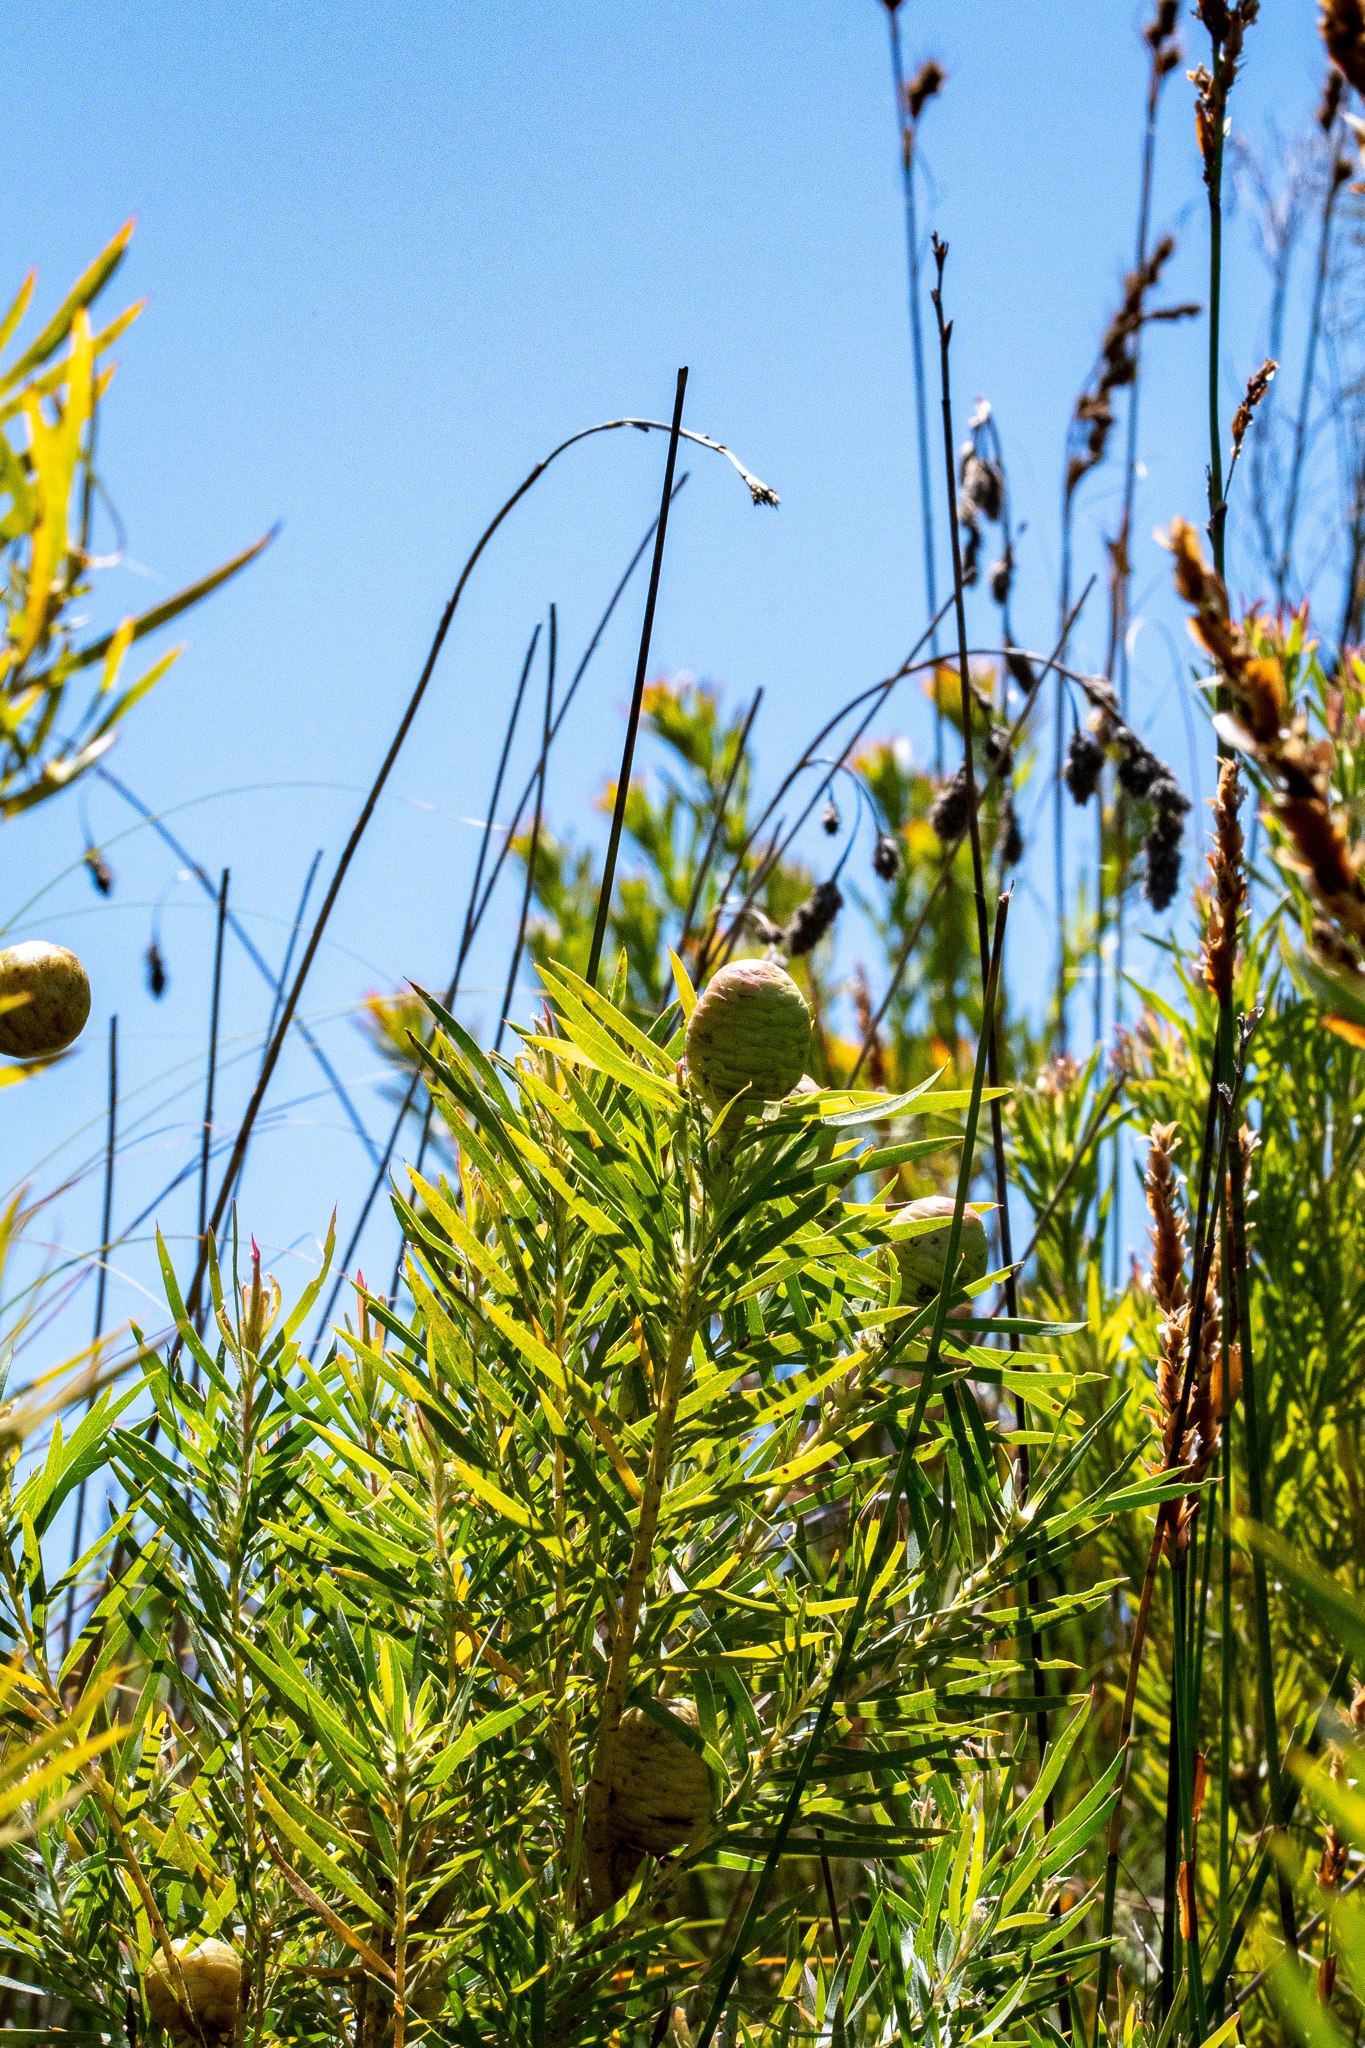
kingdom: Plantae
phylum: Tracheophyta
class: Magnoliopsida
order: Proteales
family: Proteaceae
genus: Leucadendron
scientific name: Leucadendron salicifolium
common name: Common stream conebush
